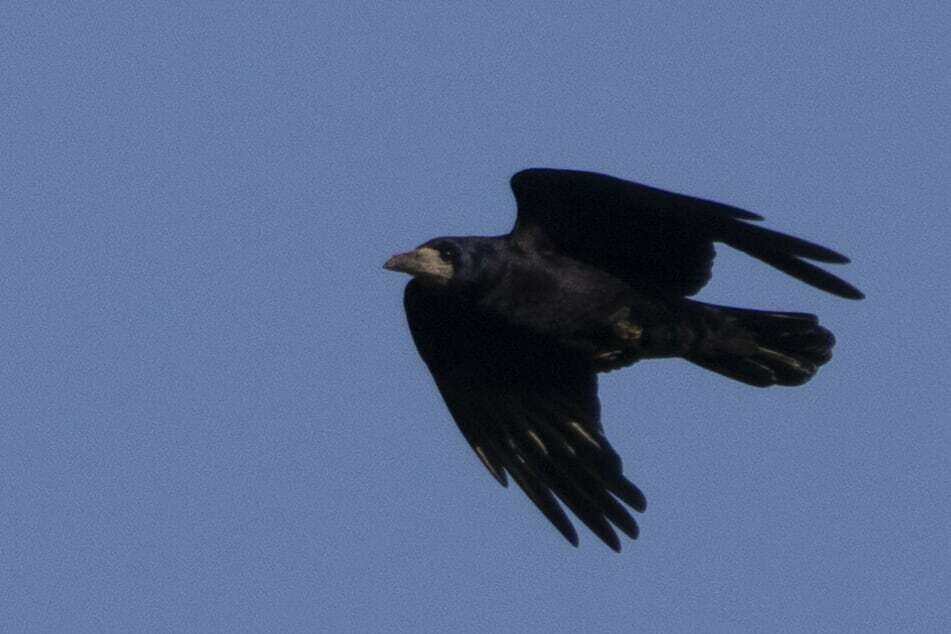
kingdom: Animalia
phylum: Chordata
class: Aves
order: Passeriformes
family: Corvidae
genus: Corvus
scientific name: Corvus frugilegus
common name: Rook
